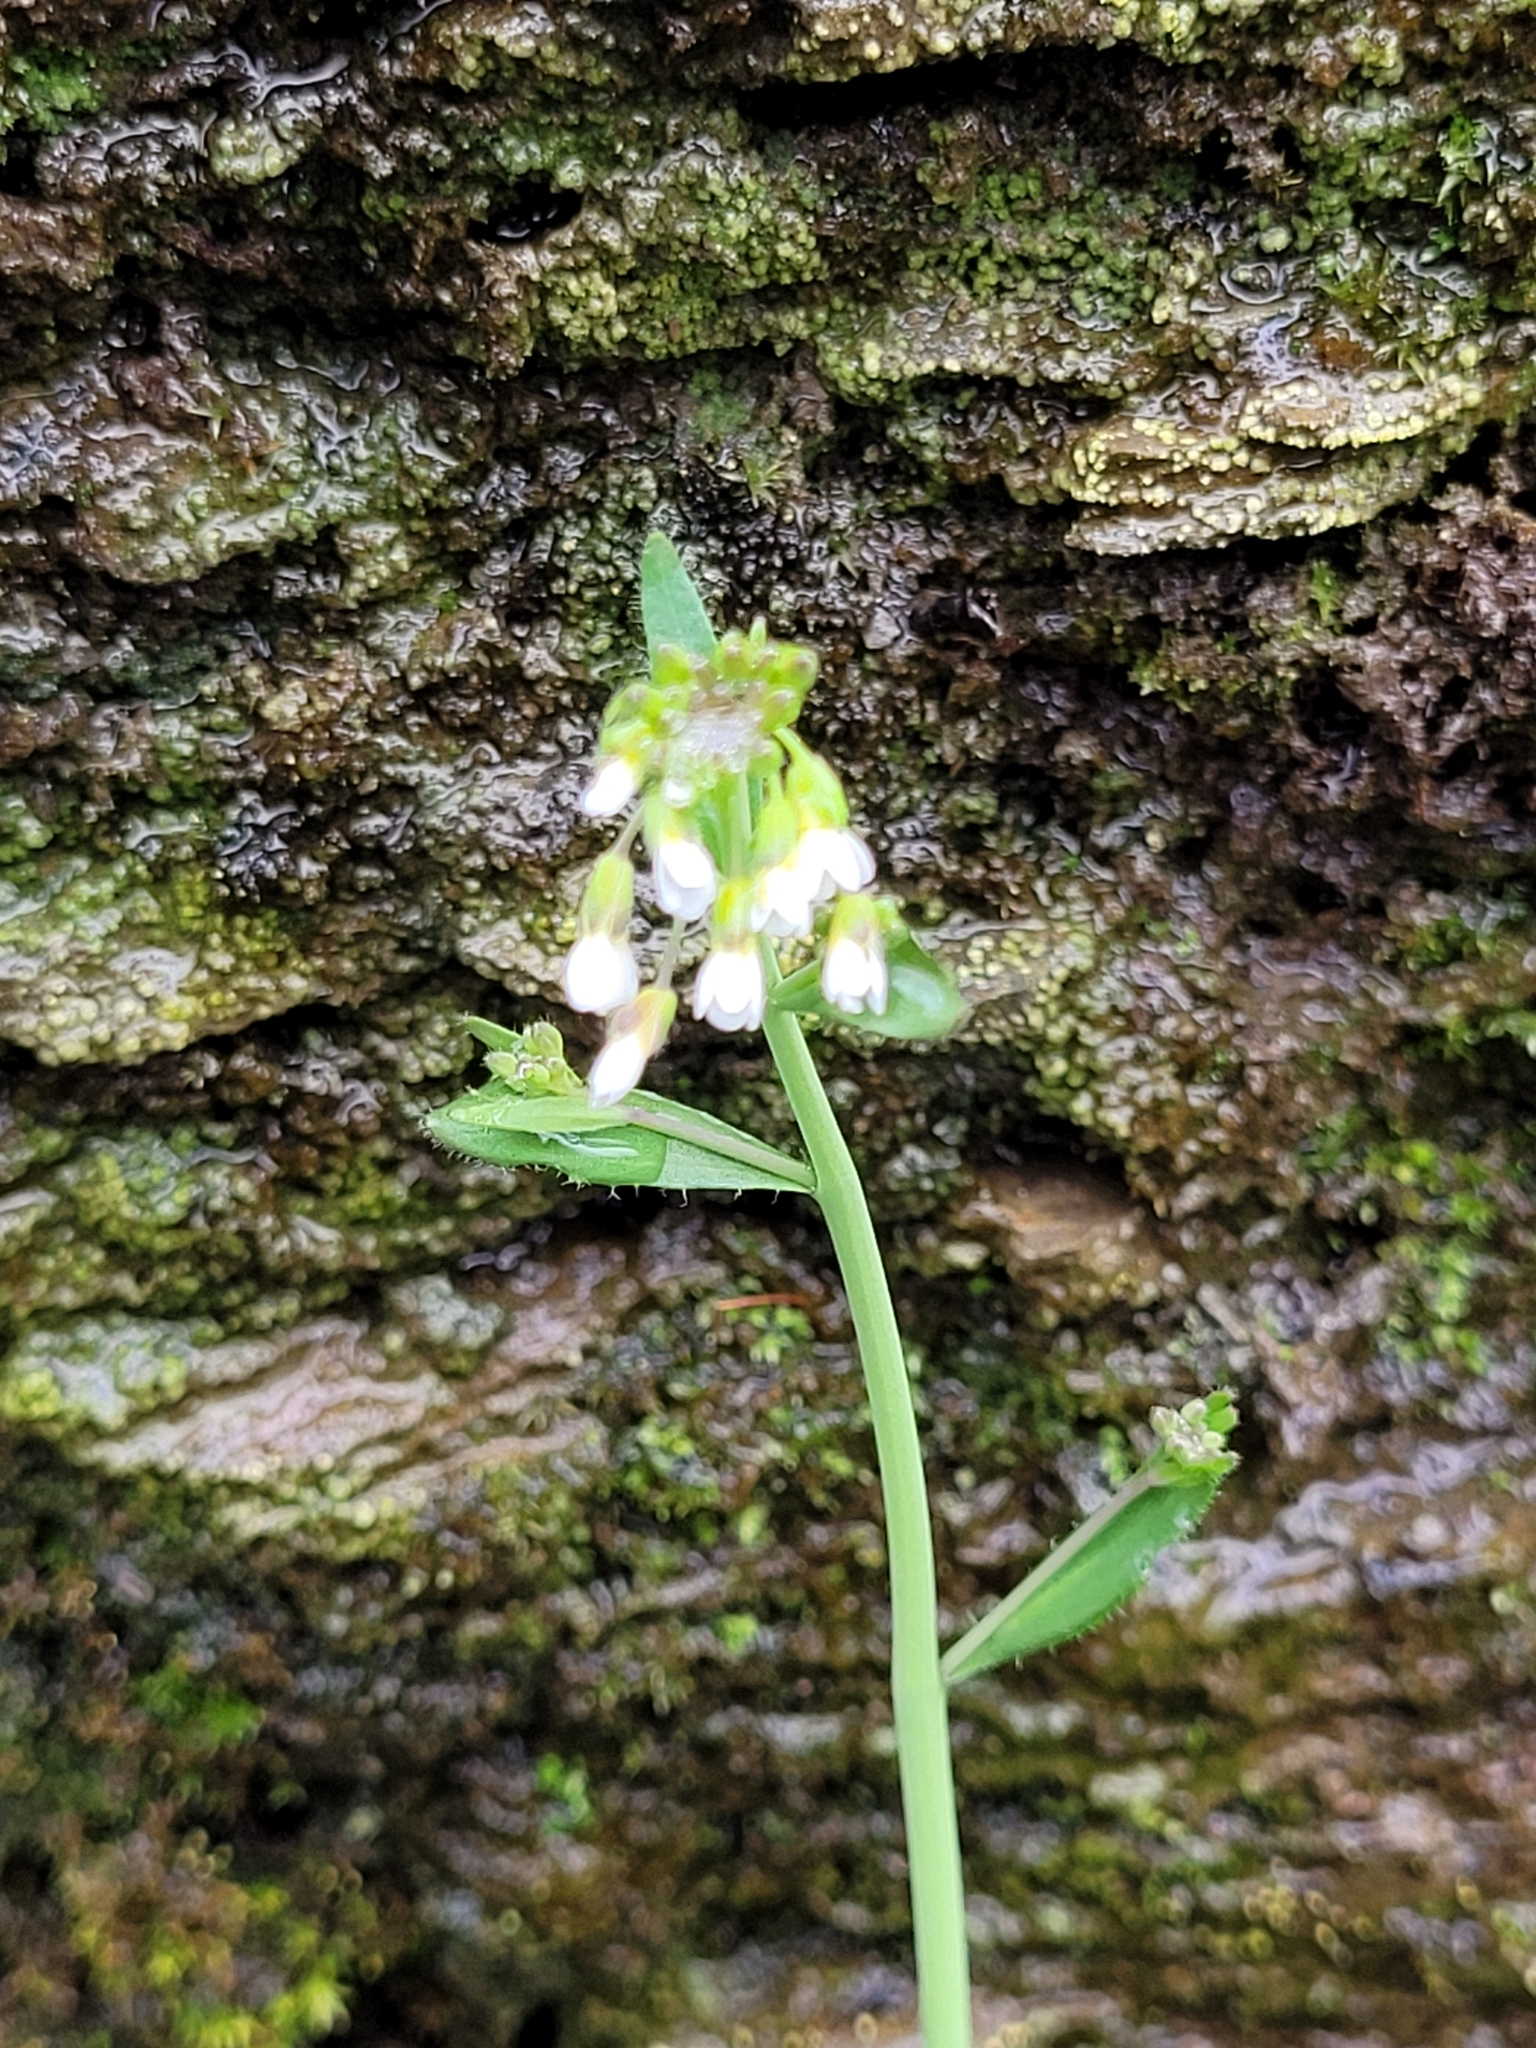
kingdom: Plantae
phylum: Tracheophyta
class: Magnoliopsida
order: Brassicales
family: Brassicaceae
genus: Arabidopsis
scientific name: Arabidopsis thaliana
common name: Thale cress
